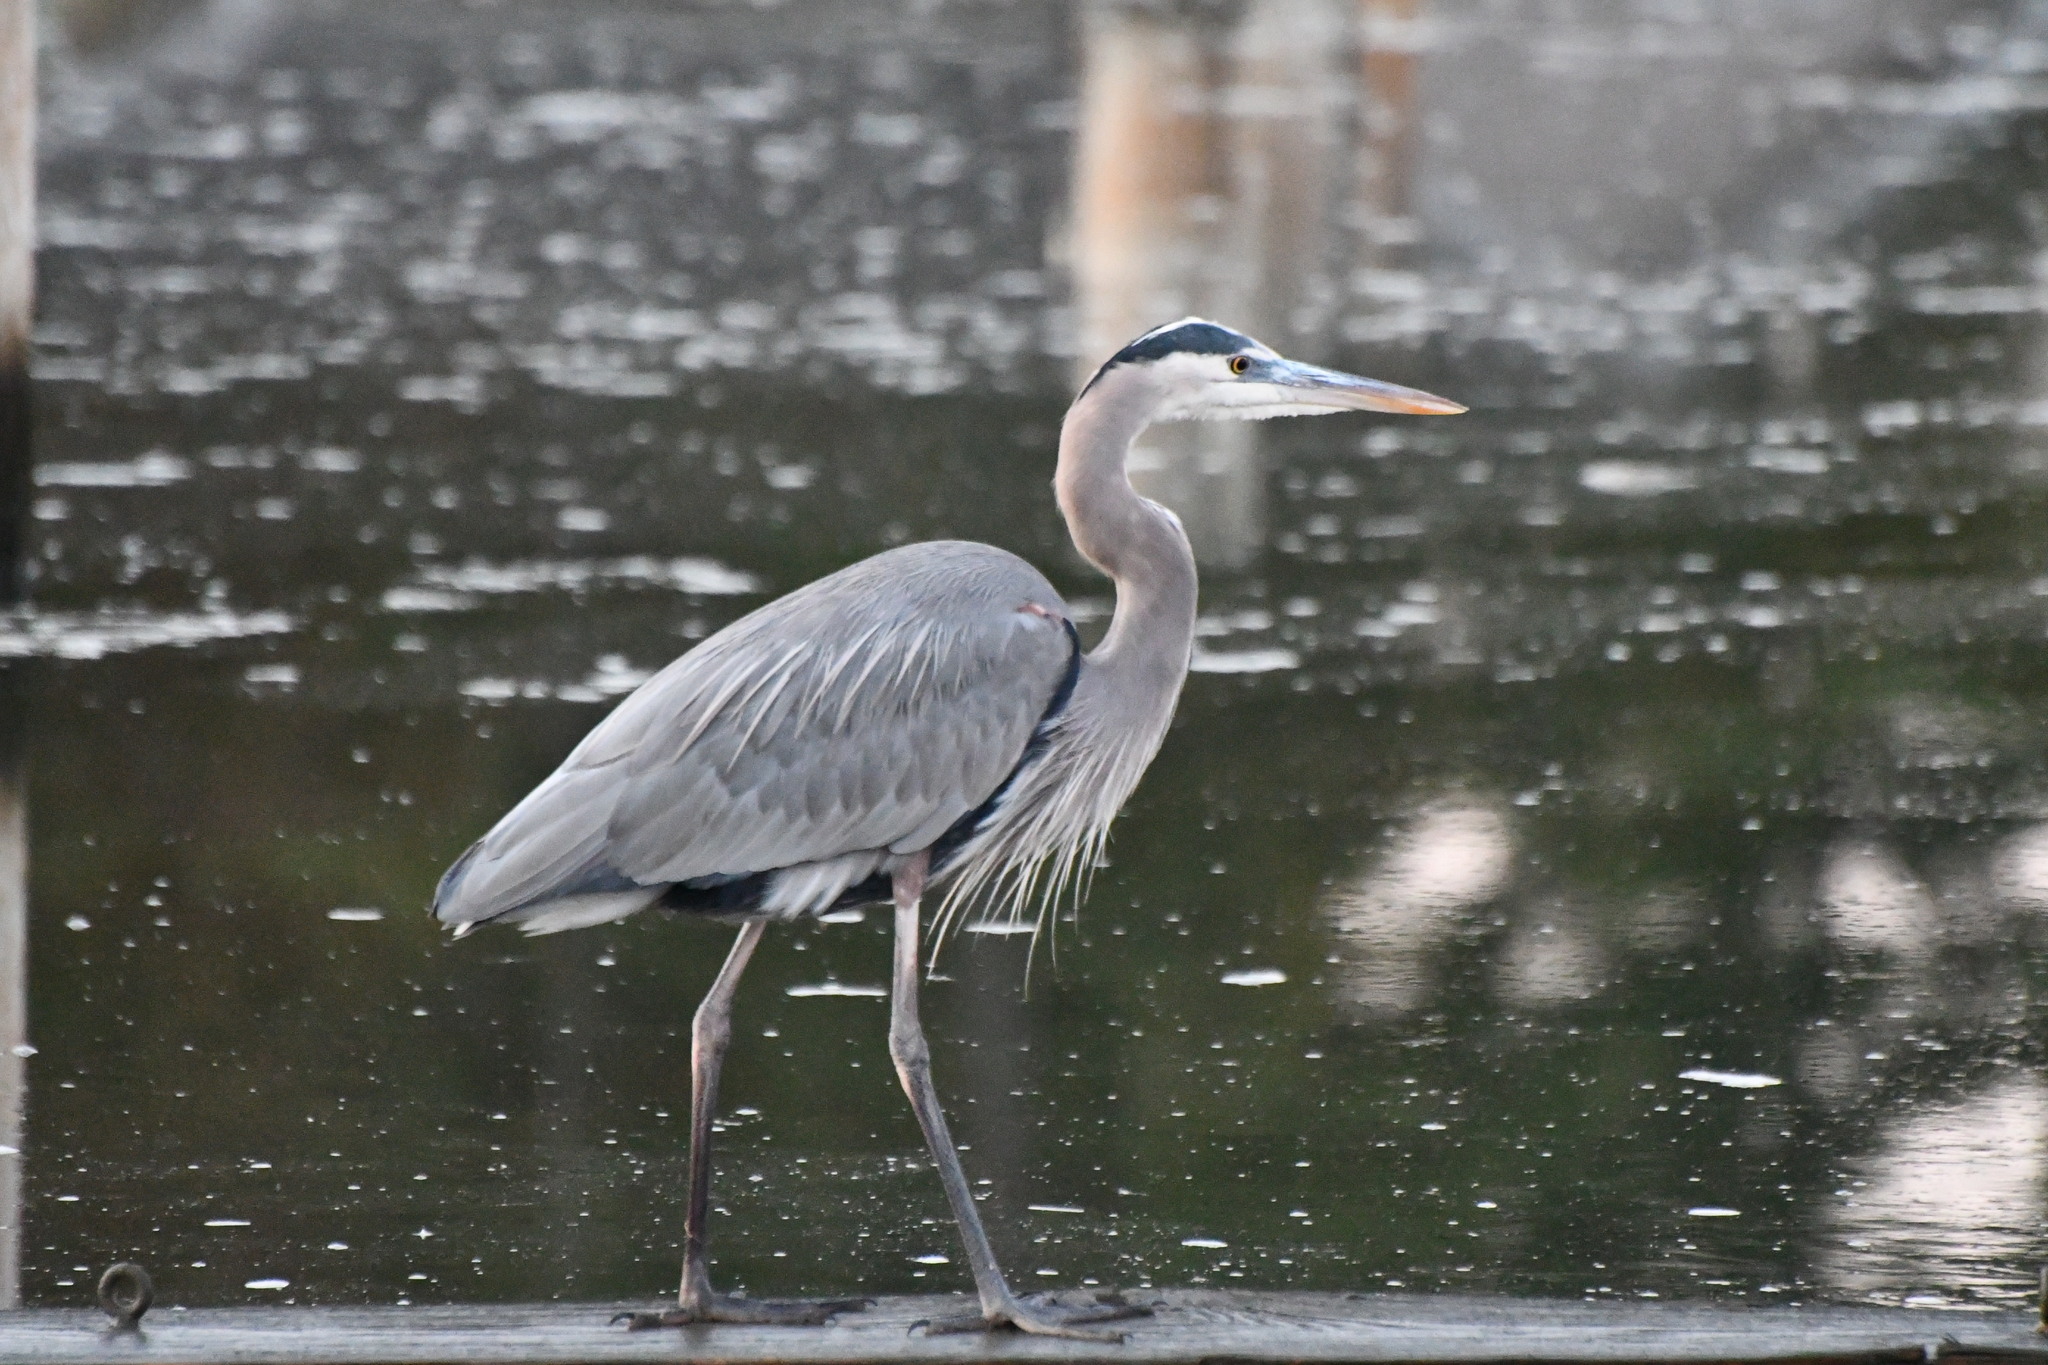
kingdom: Animalia
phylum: Chordata
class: Aves
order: Pelecaniformes
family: Ardeidae
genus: Ardea
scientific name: Ardea herodias
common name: Great blue heron
